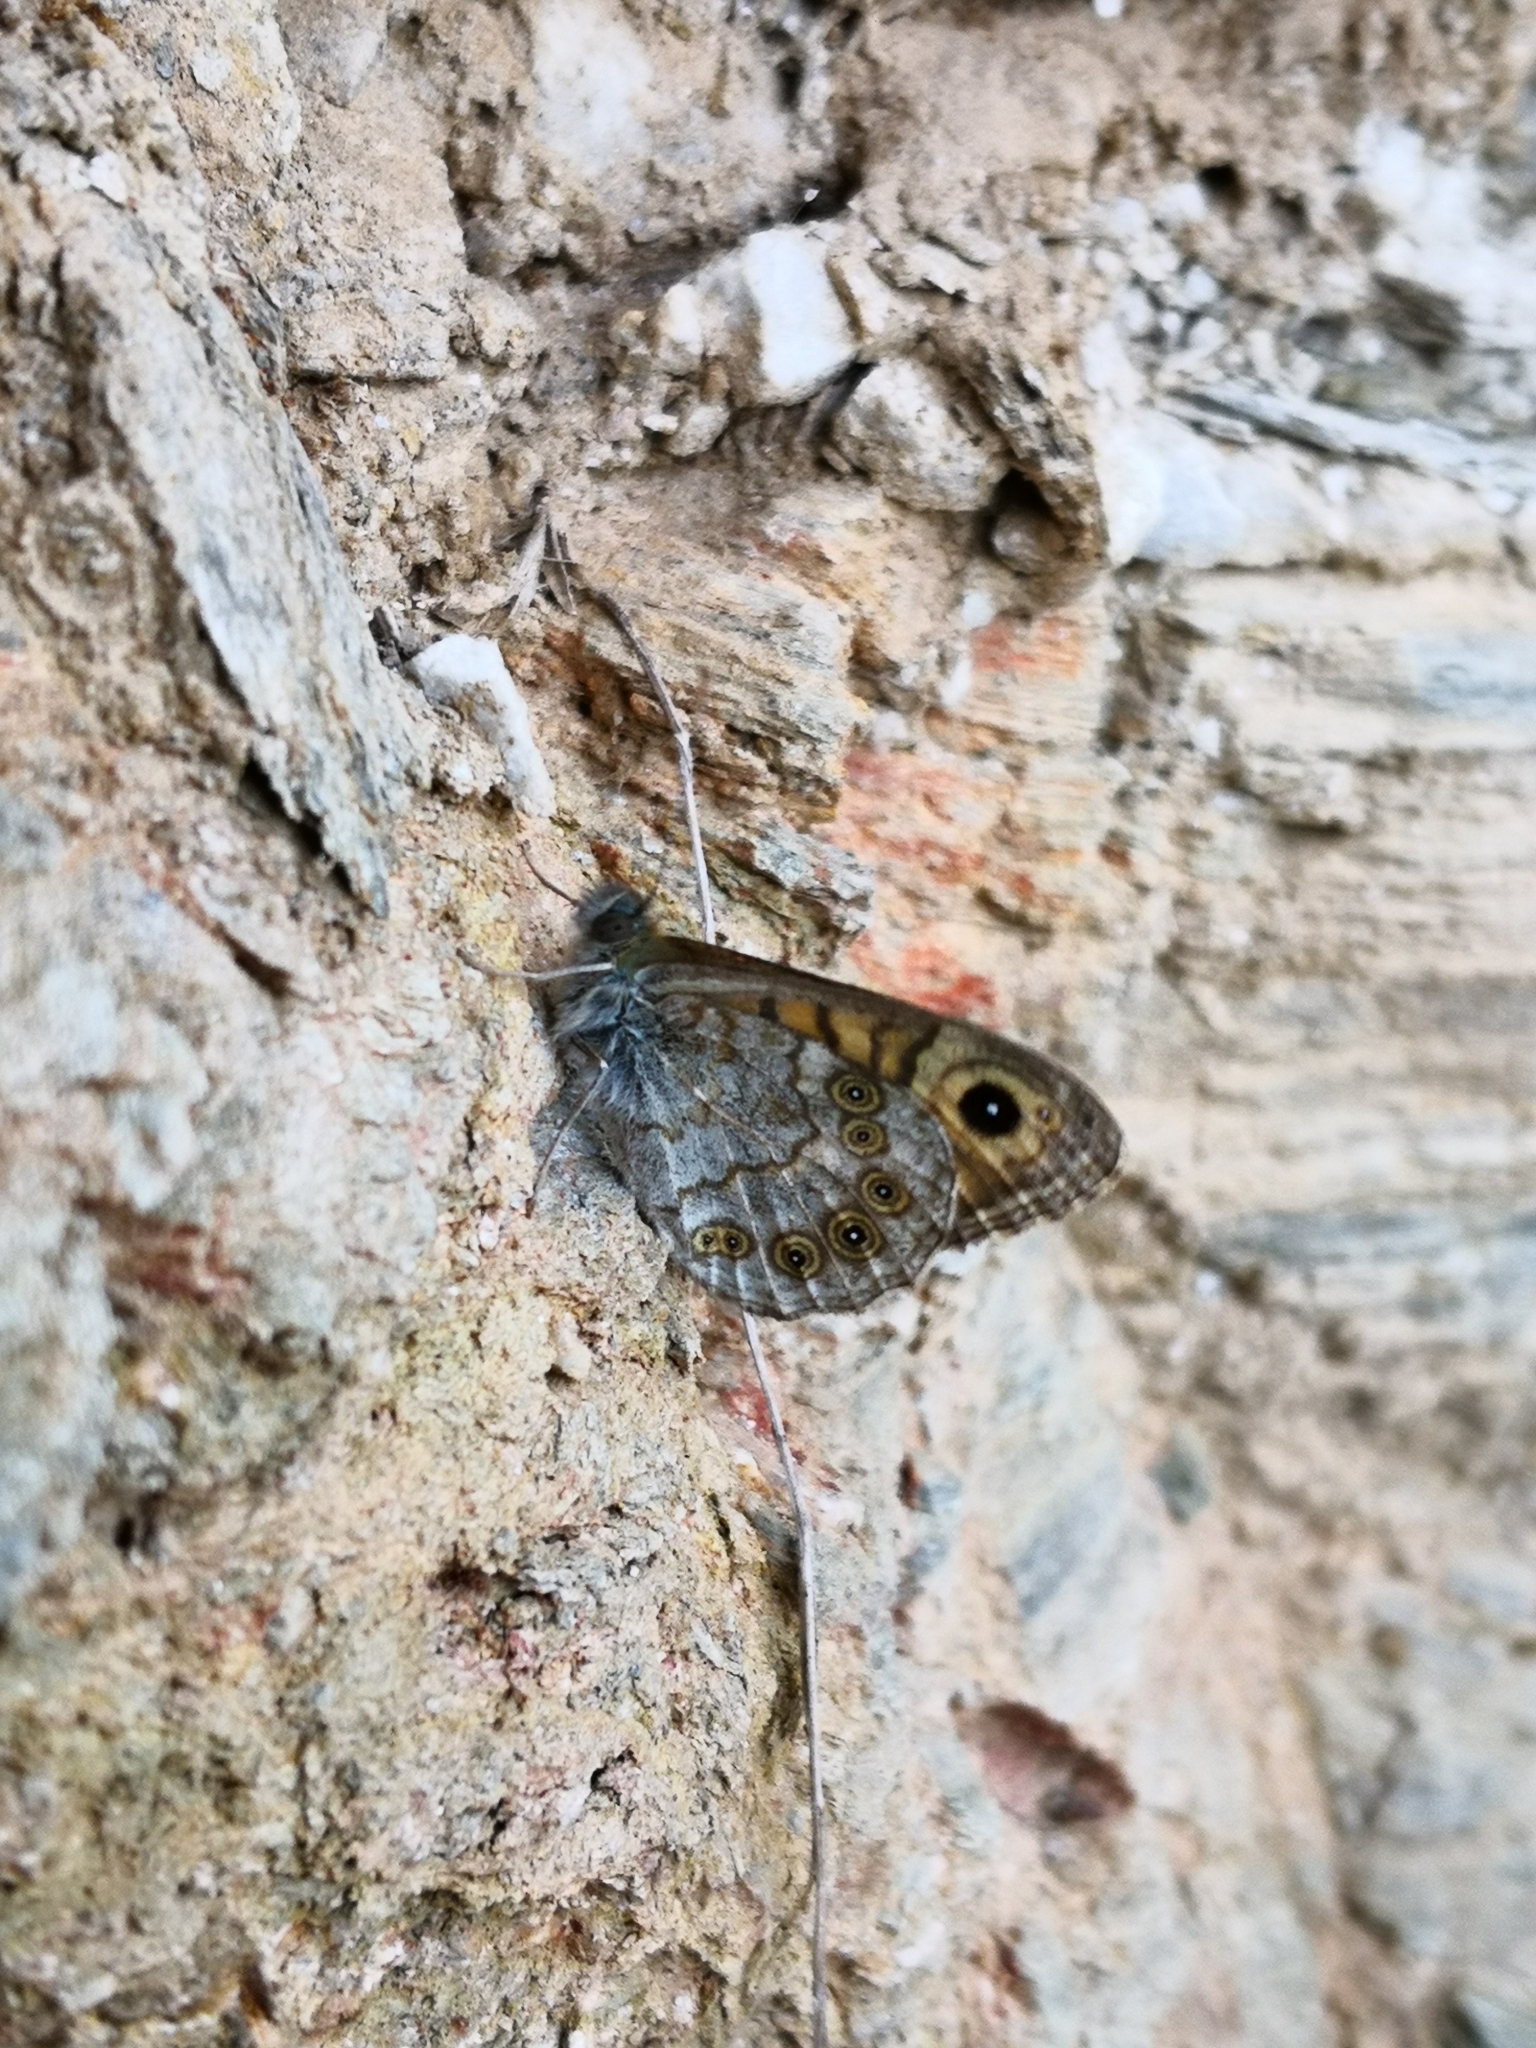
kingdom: Animalia
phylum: Arthropoda
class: Insecta
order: Lepidoptera
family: Nymphalidae
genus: Pararge
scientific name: Pararge Lasiommata megera
